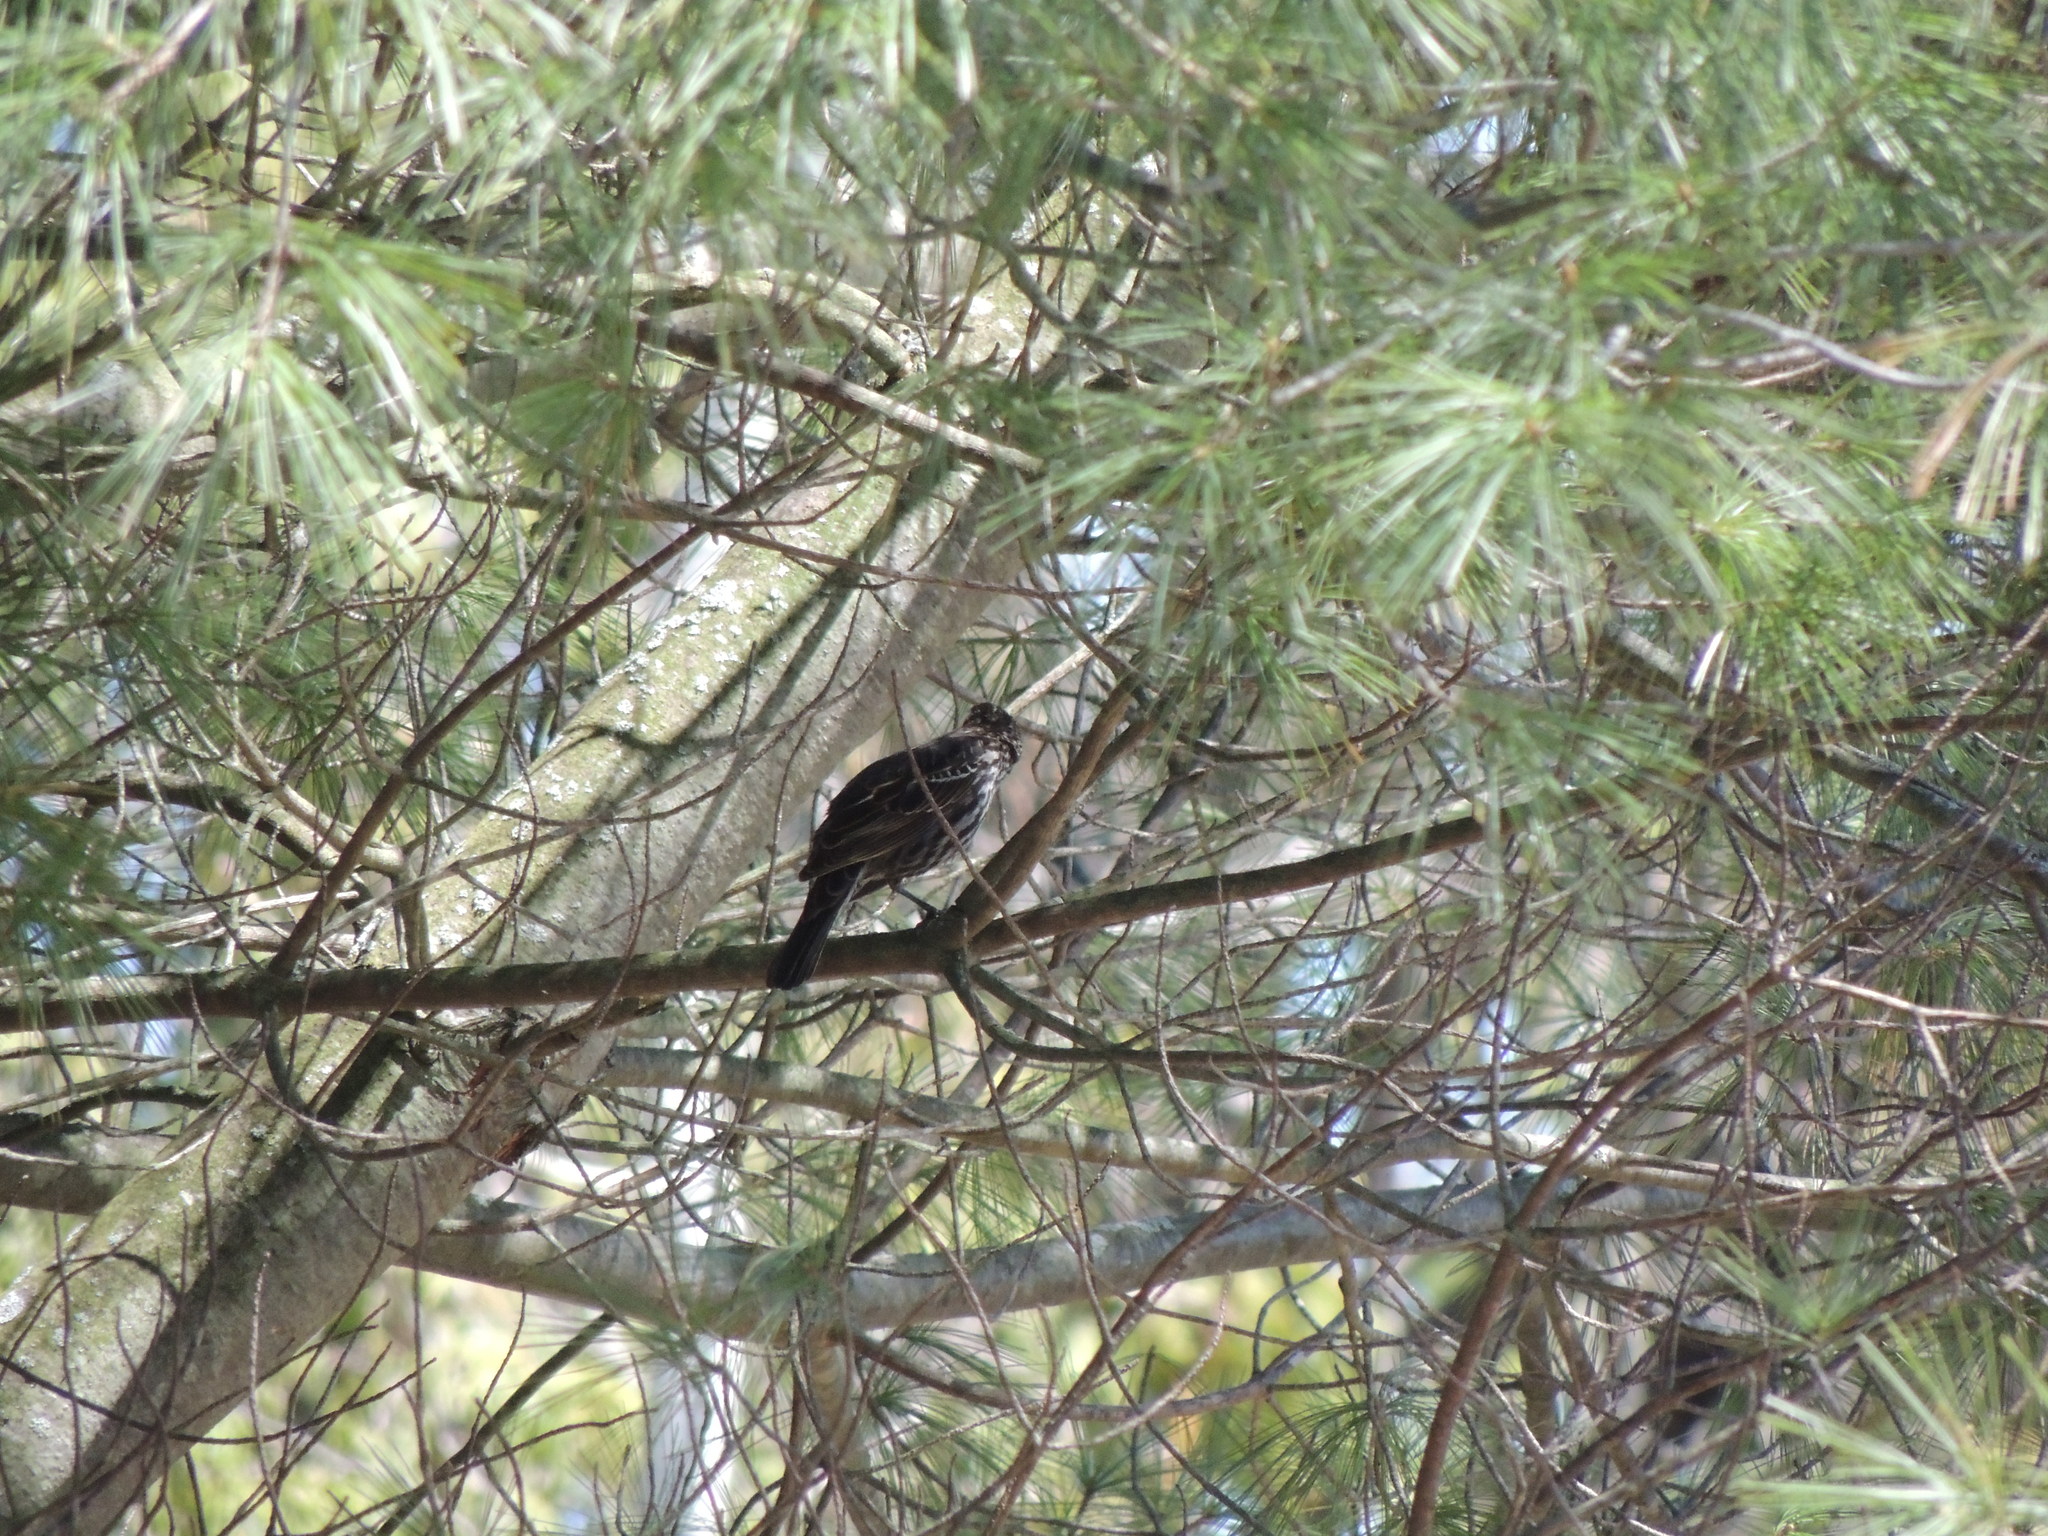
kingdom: Animalia
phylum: Chordata
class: Aves
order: Passeriformes
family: Icteridae
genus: Agelaius
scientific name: Agelaius phoeniceus
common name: Red-winged blackbird
